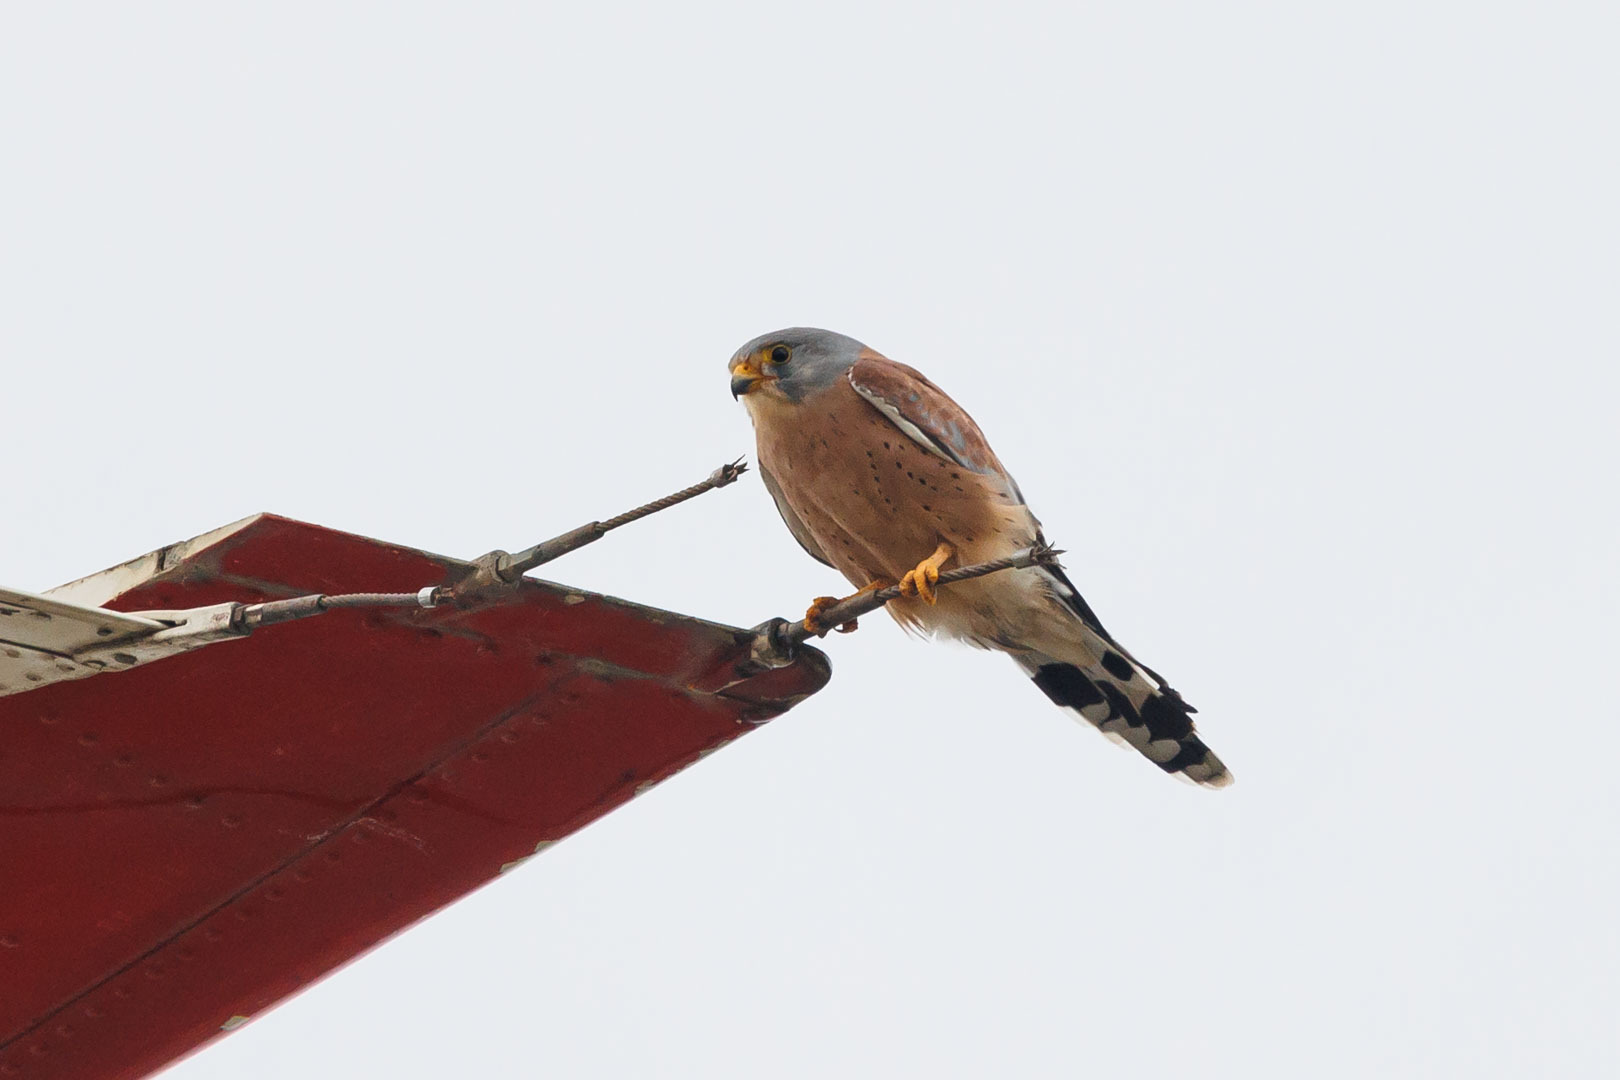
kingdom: Animalia
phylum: Chordata
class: Aves
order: Falconiformes
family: Falconidae
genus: Falco
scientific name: Falco naumanni
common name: Lesser kestrel
